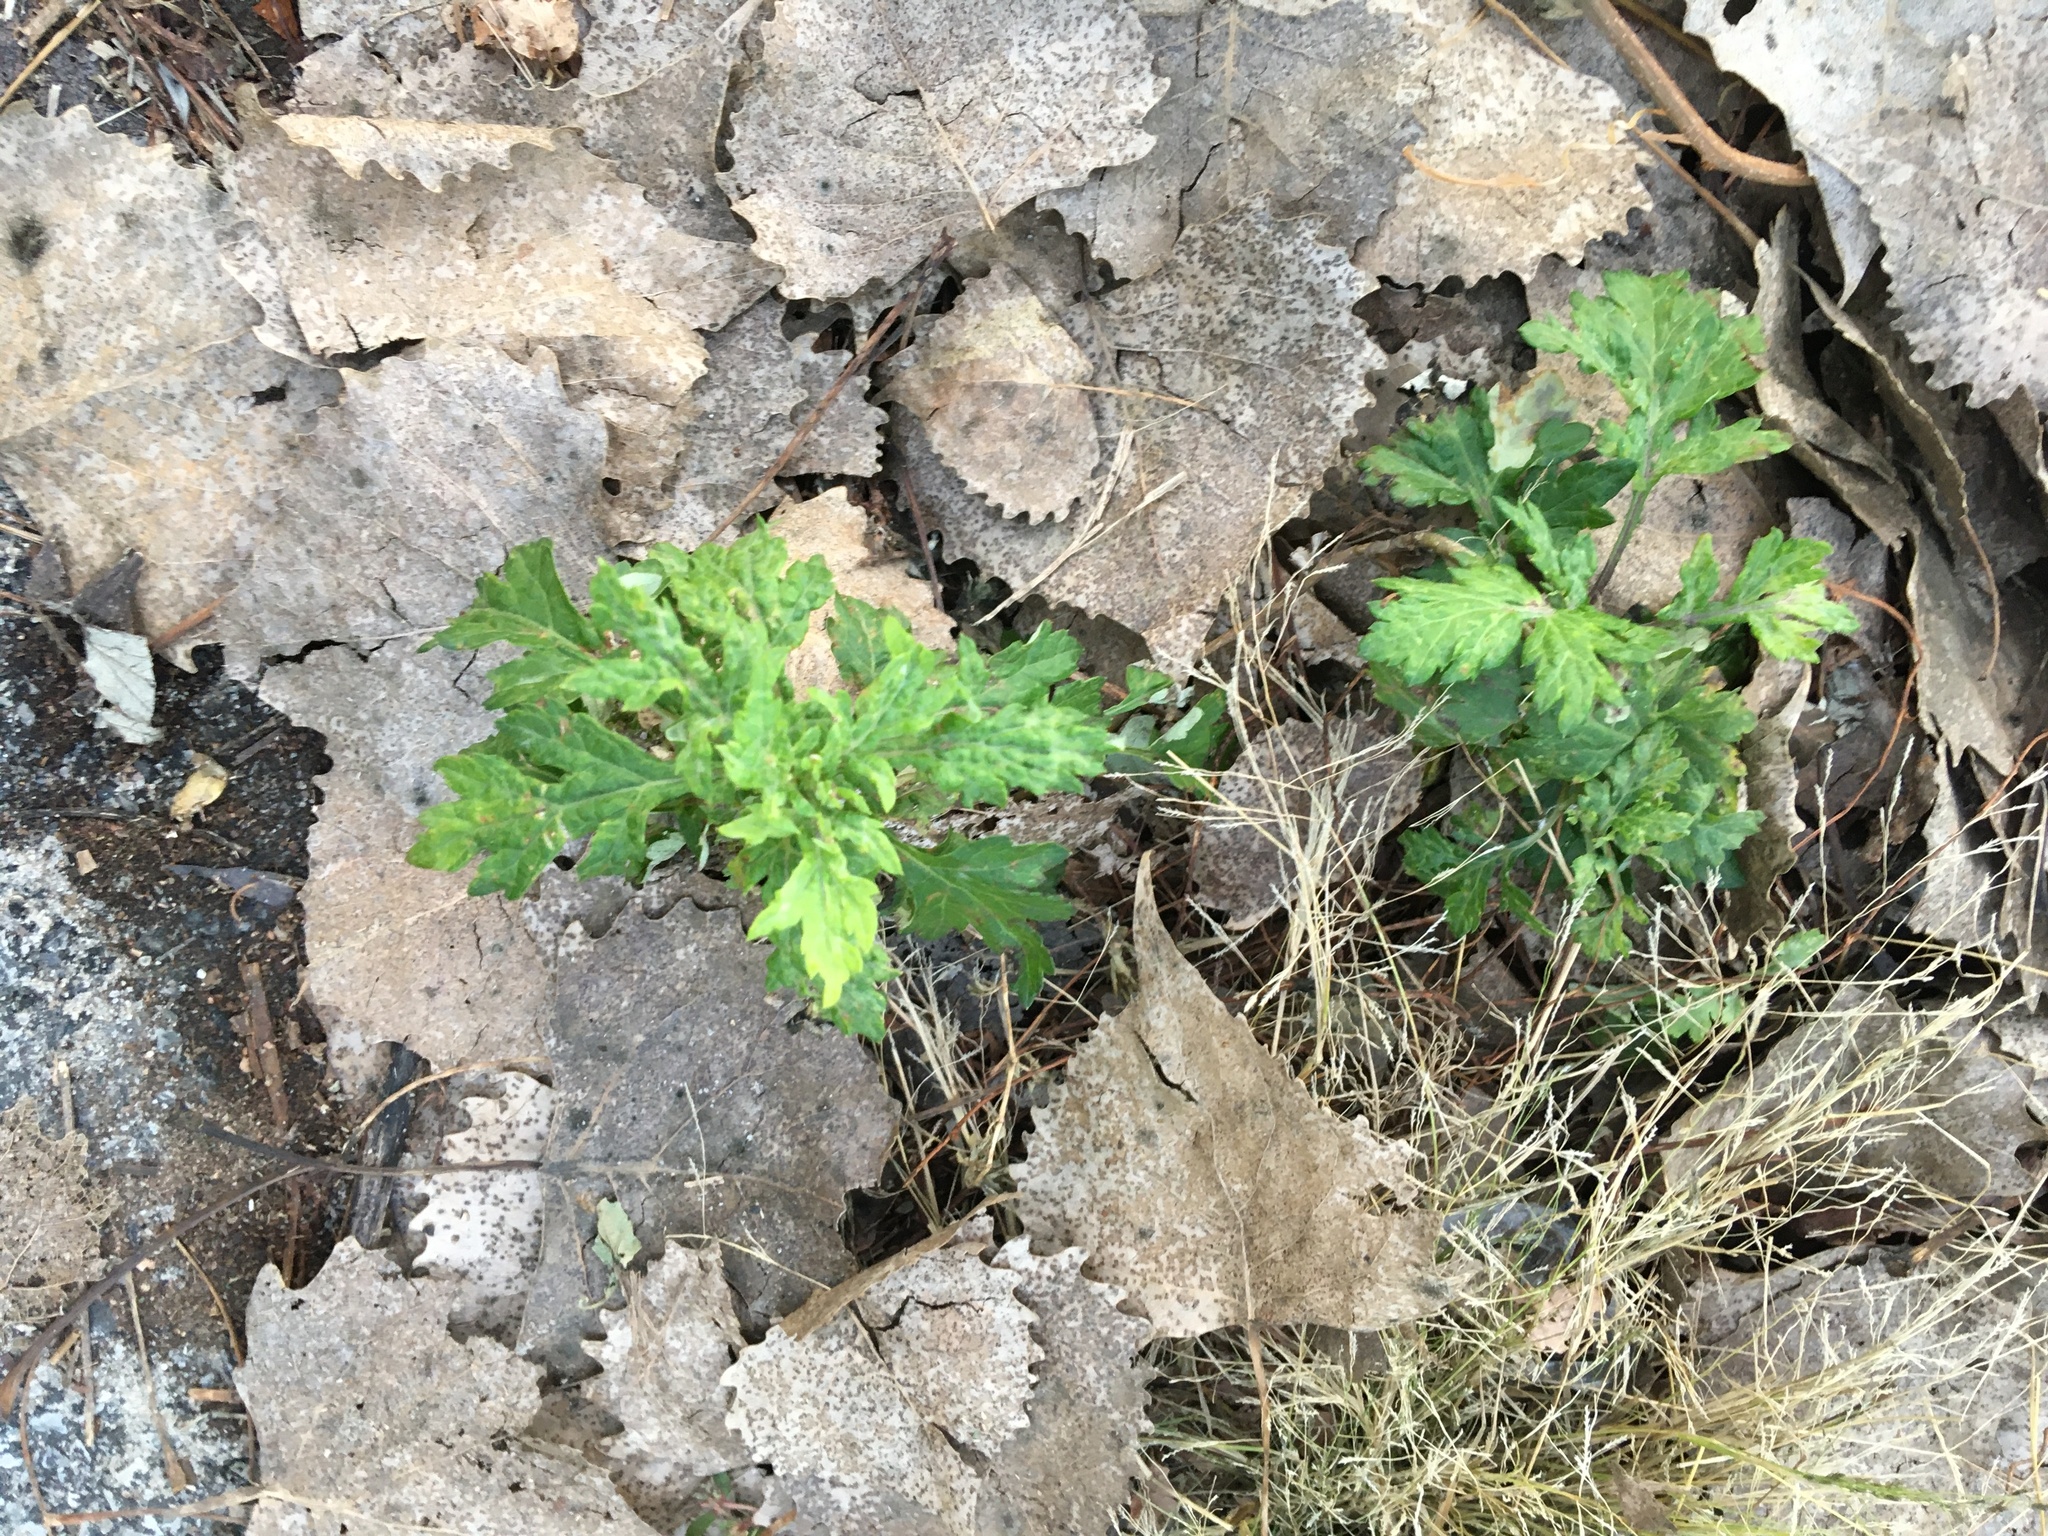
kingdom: Plantae
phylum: Tracheophyta
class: Magnoliopsida
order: Asterales
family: Asteraceae
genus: Artemisia
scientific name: Artemisia vulgaris
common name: Mugwort
